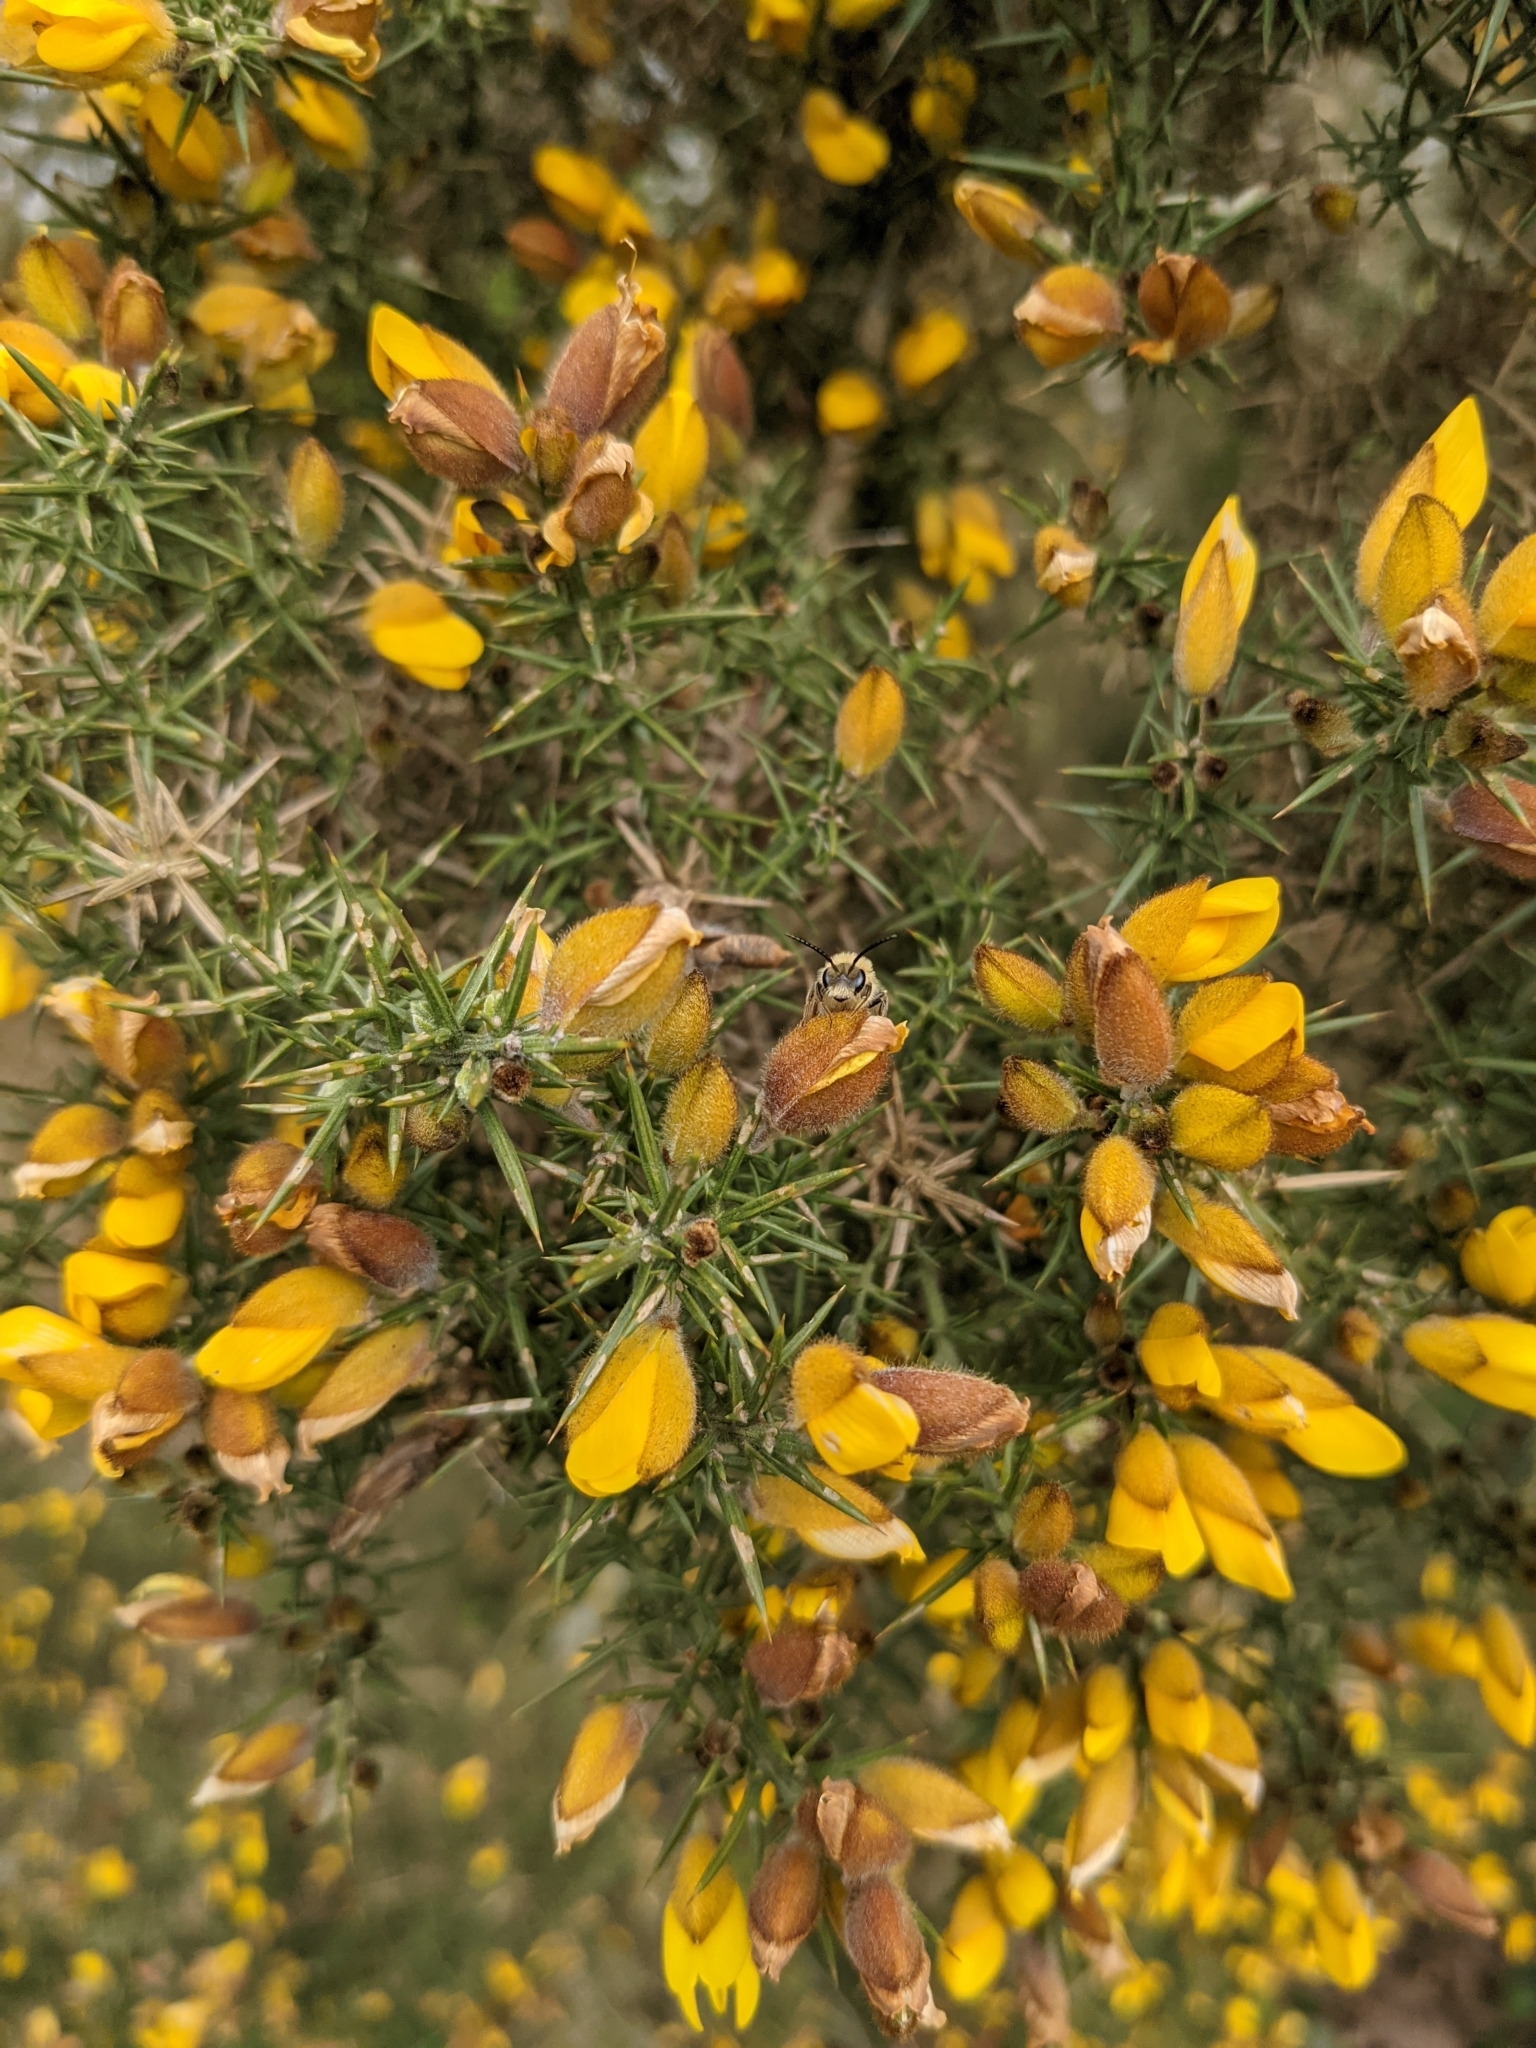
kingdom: Plantae
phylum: Tracheophyta
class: Magnoliopsida
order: Fabales
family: Fabaceae
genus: Ulex
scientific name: Ulex europaeus
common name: Common gorse
